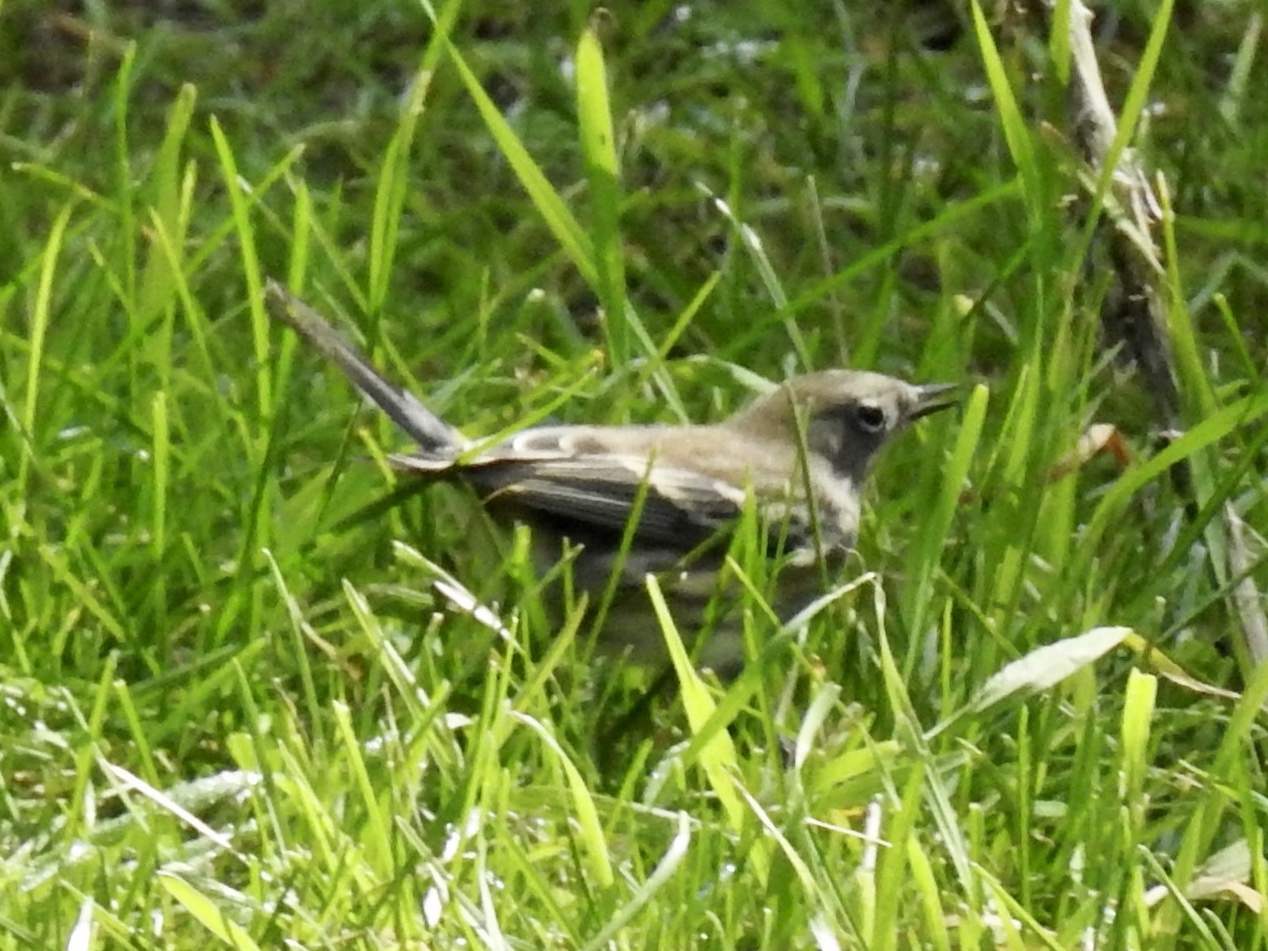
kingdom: Animalia
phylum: Chordata
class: Aves
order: Passeriformes
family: Parulidae
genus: Setophaga
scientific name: Setophaga coronata
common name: Myrtle warbler
